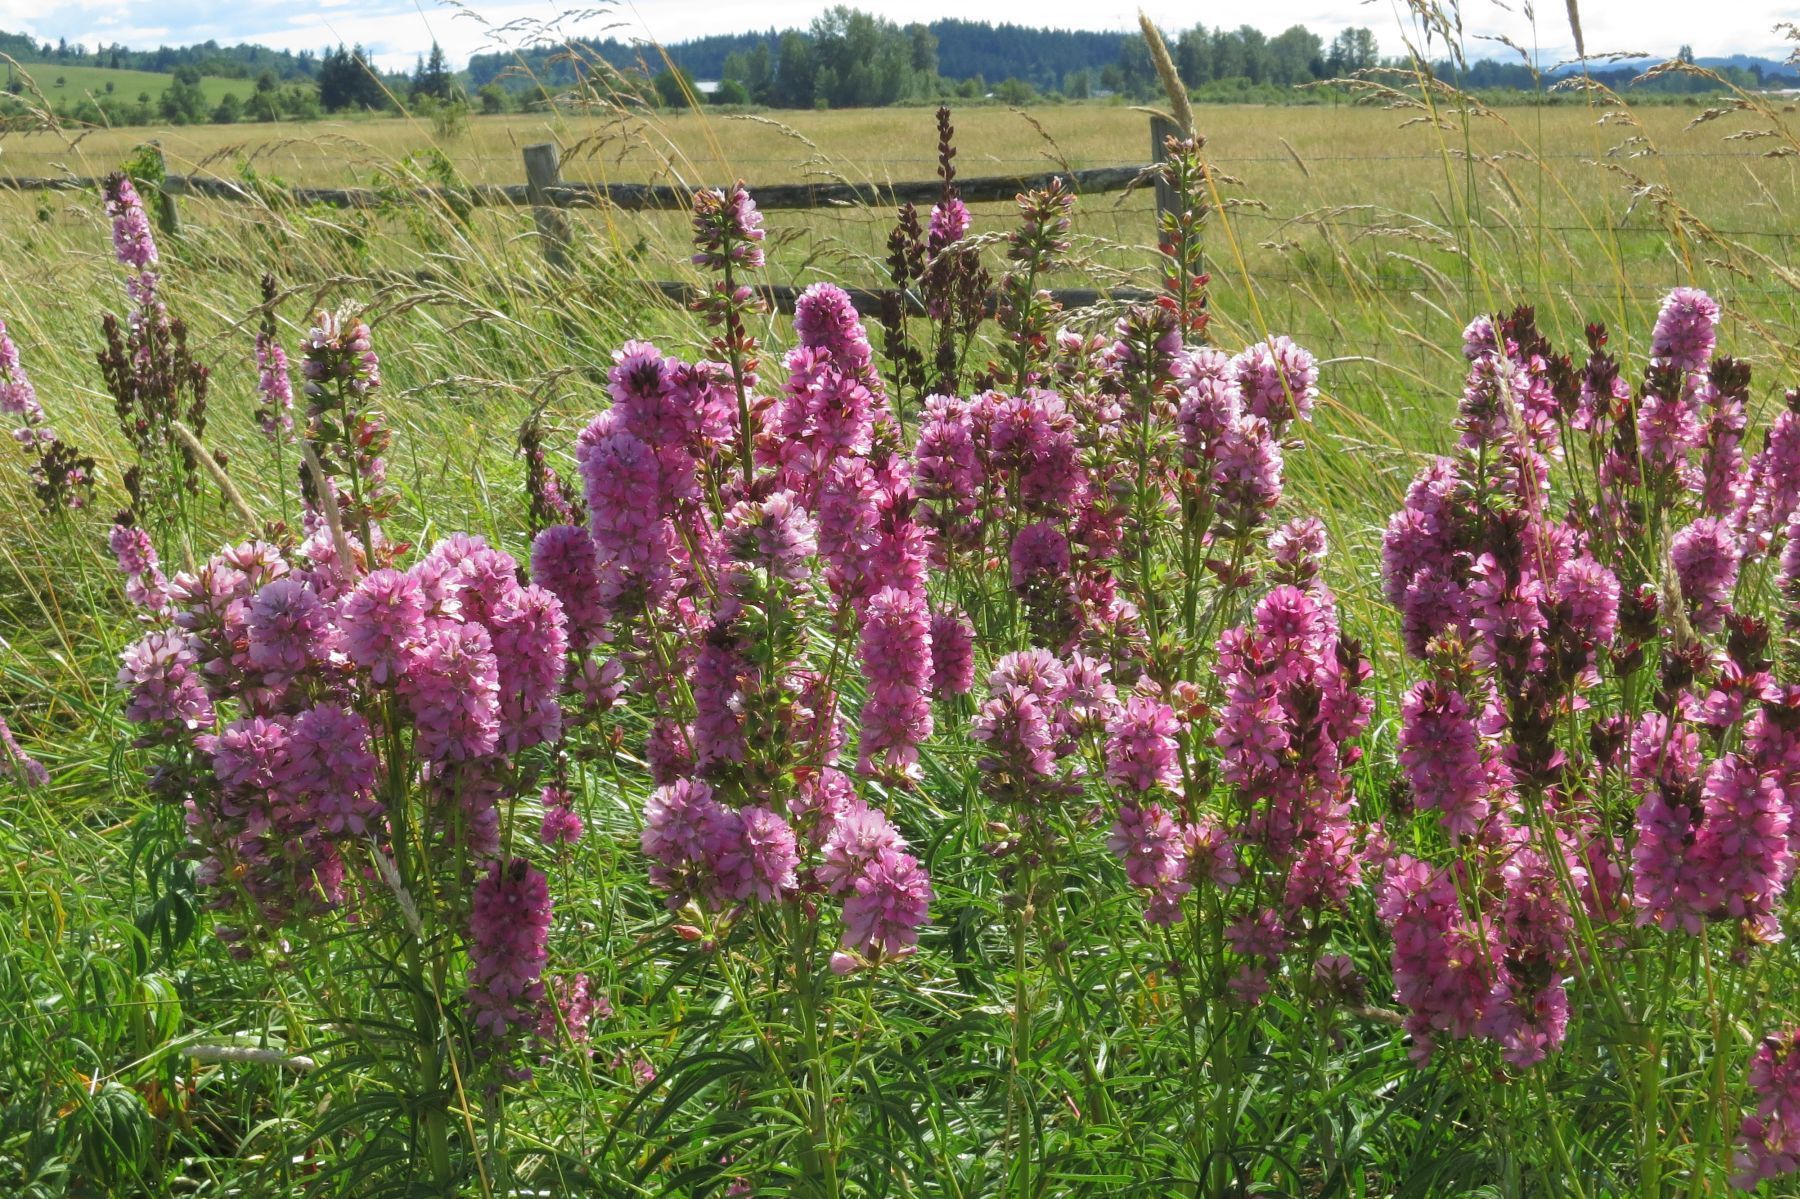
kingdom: Plantae
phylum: Tracheophyta
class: Magnoliopsida
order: Malvales
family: Malvaceae
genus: Sidalcea
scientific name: Sidalcea cusickii
